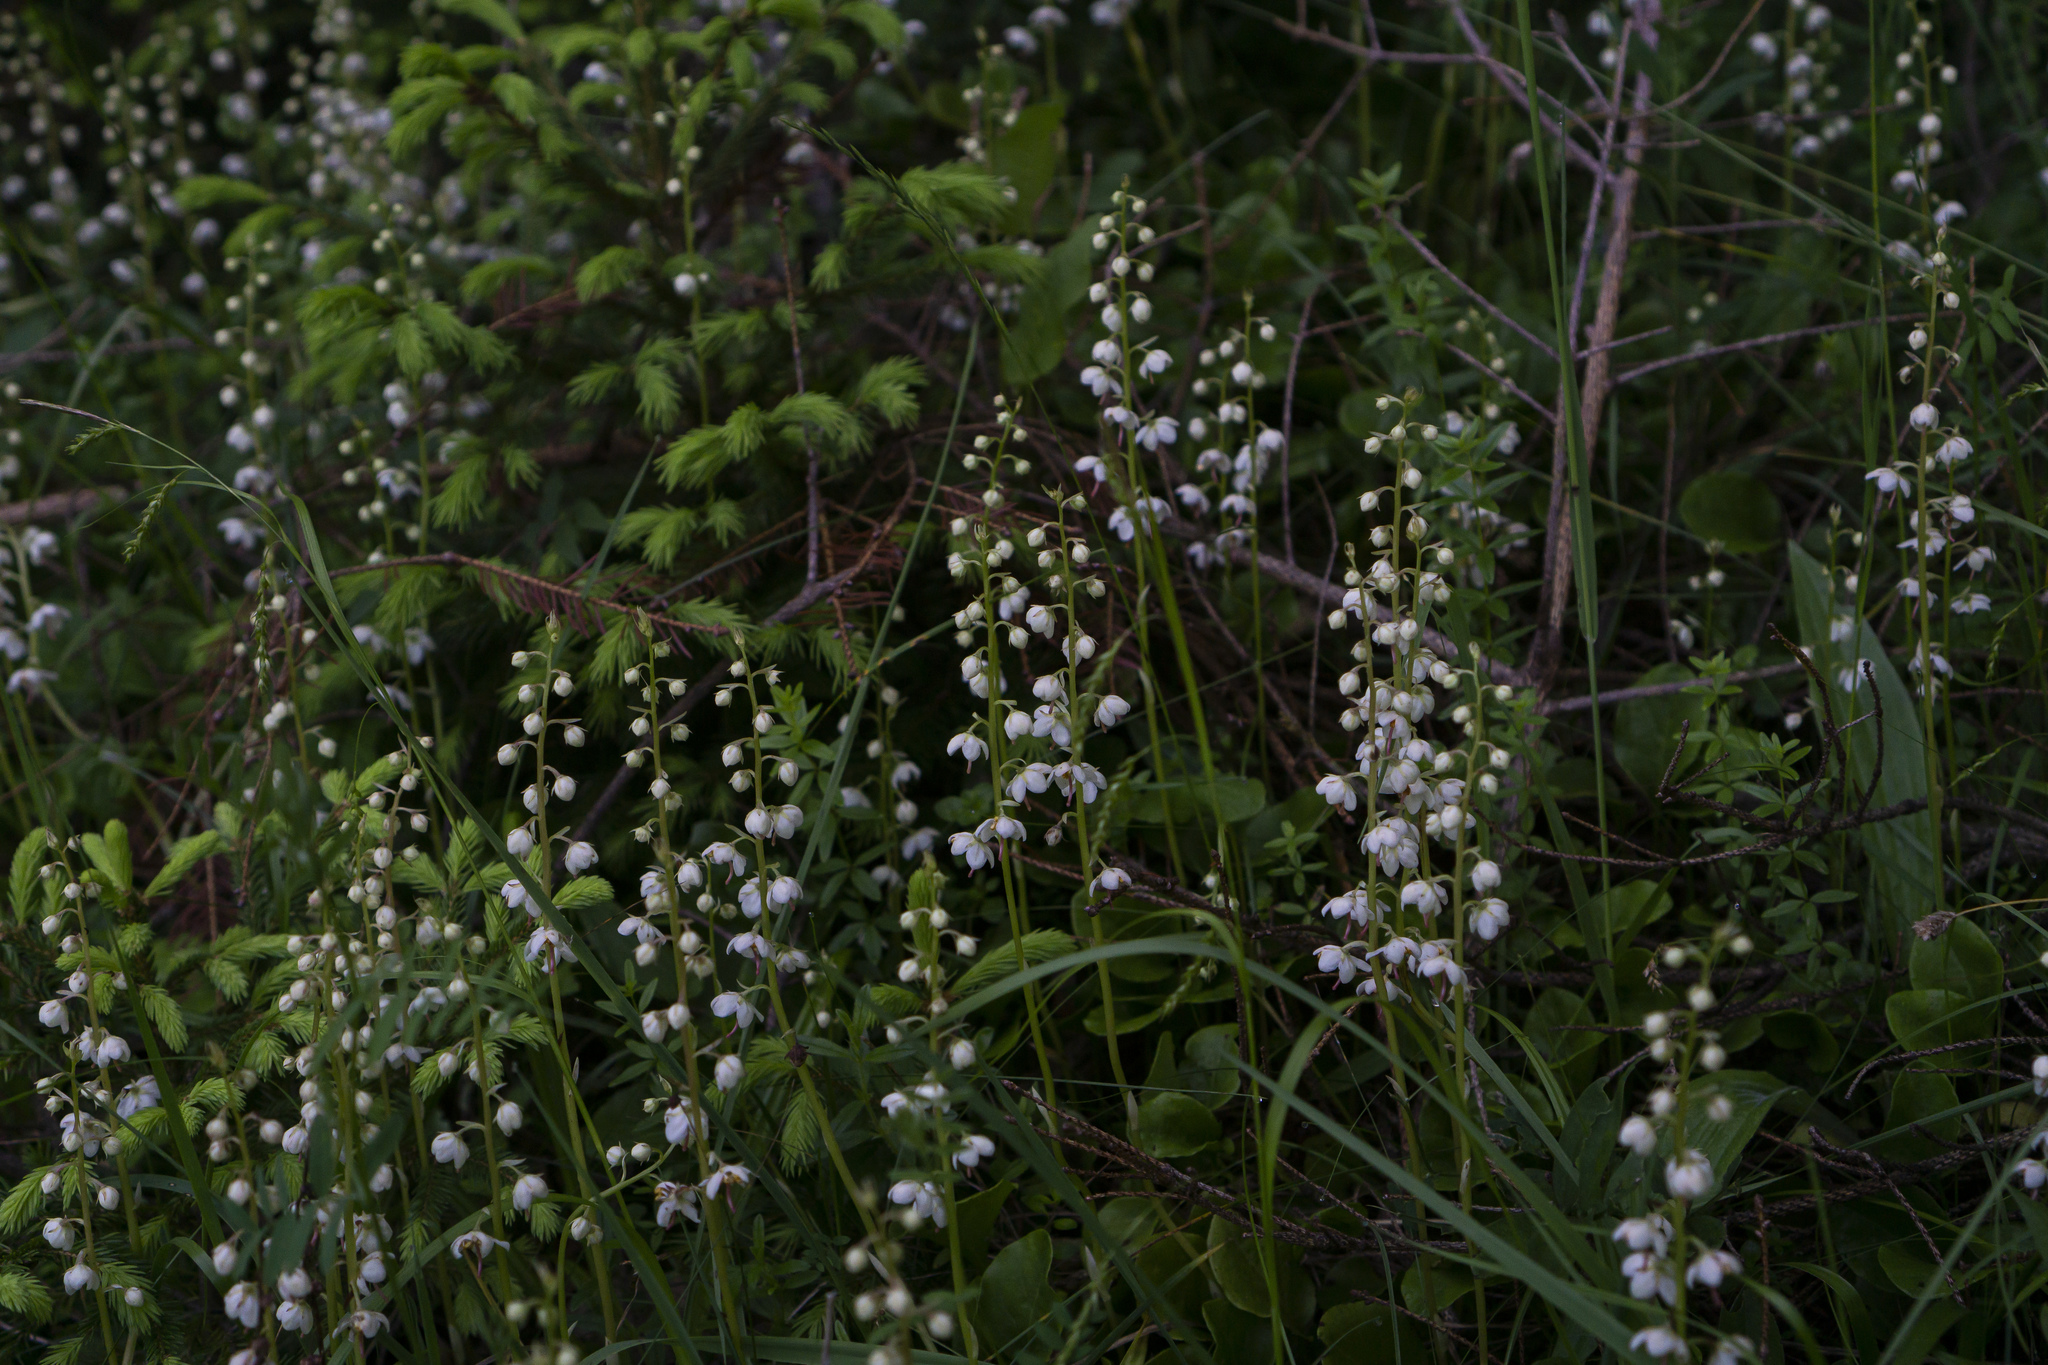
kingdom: Plantae
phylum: Tracheophyta
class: Magnoliopsida
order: Ericales
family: Ericaceae
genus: Pyrola
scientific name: Pyrola rotundifolia
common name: Round-leaved wintergreen
